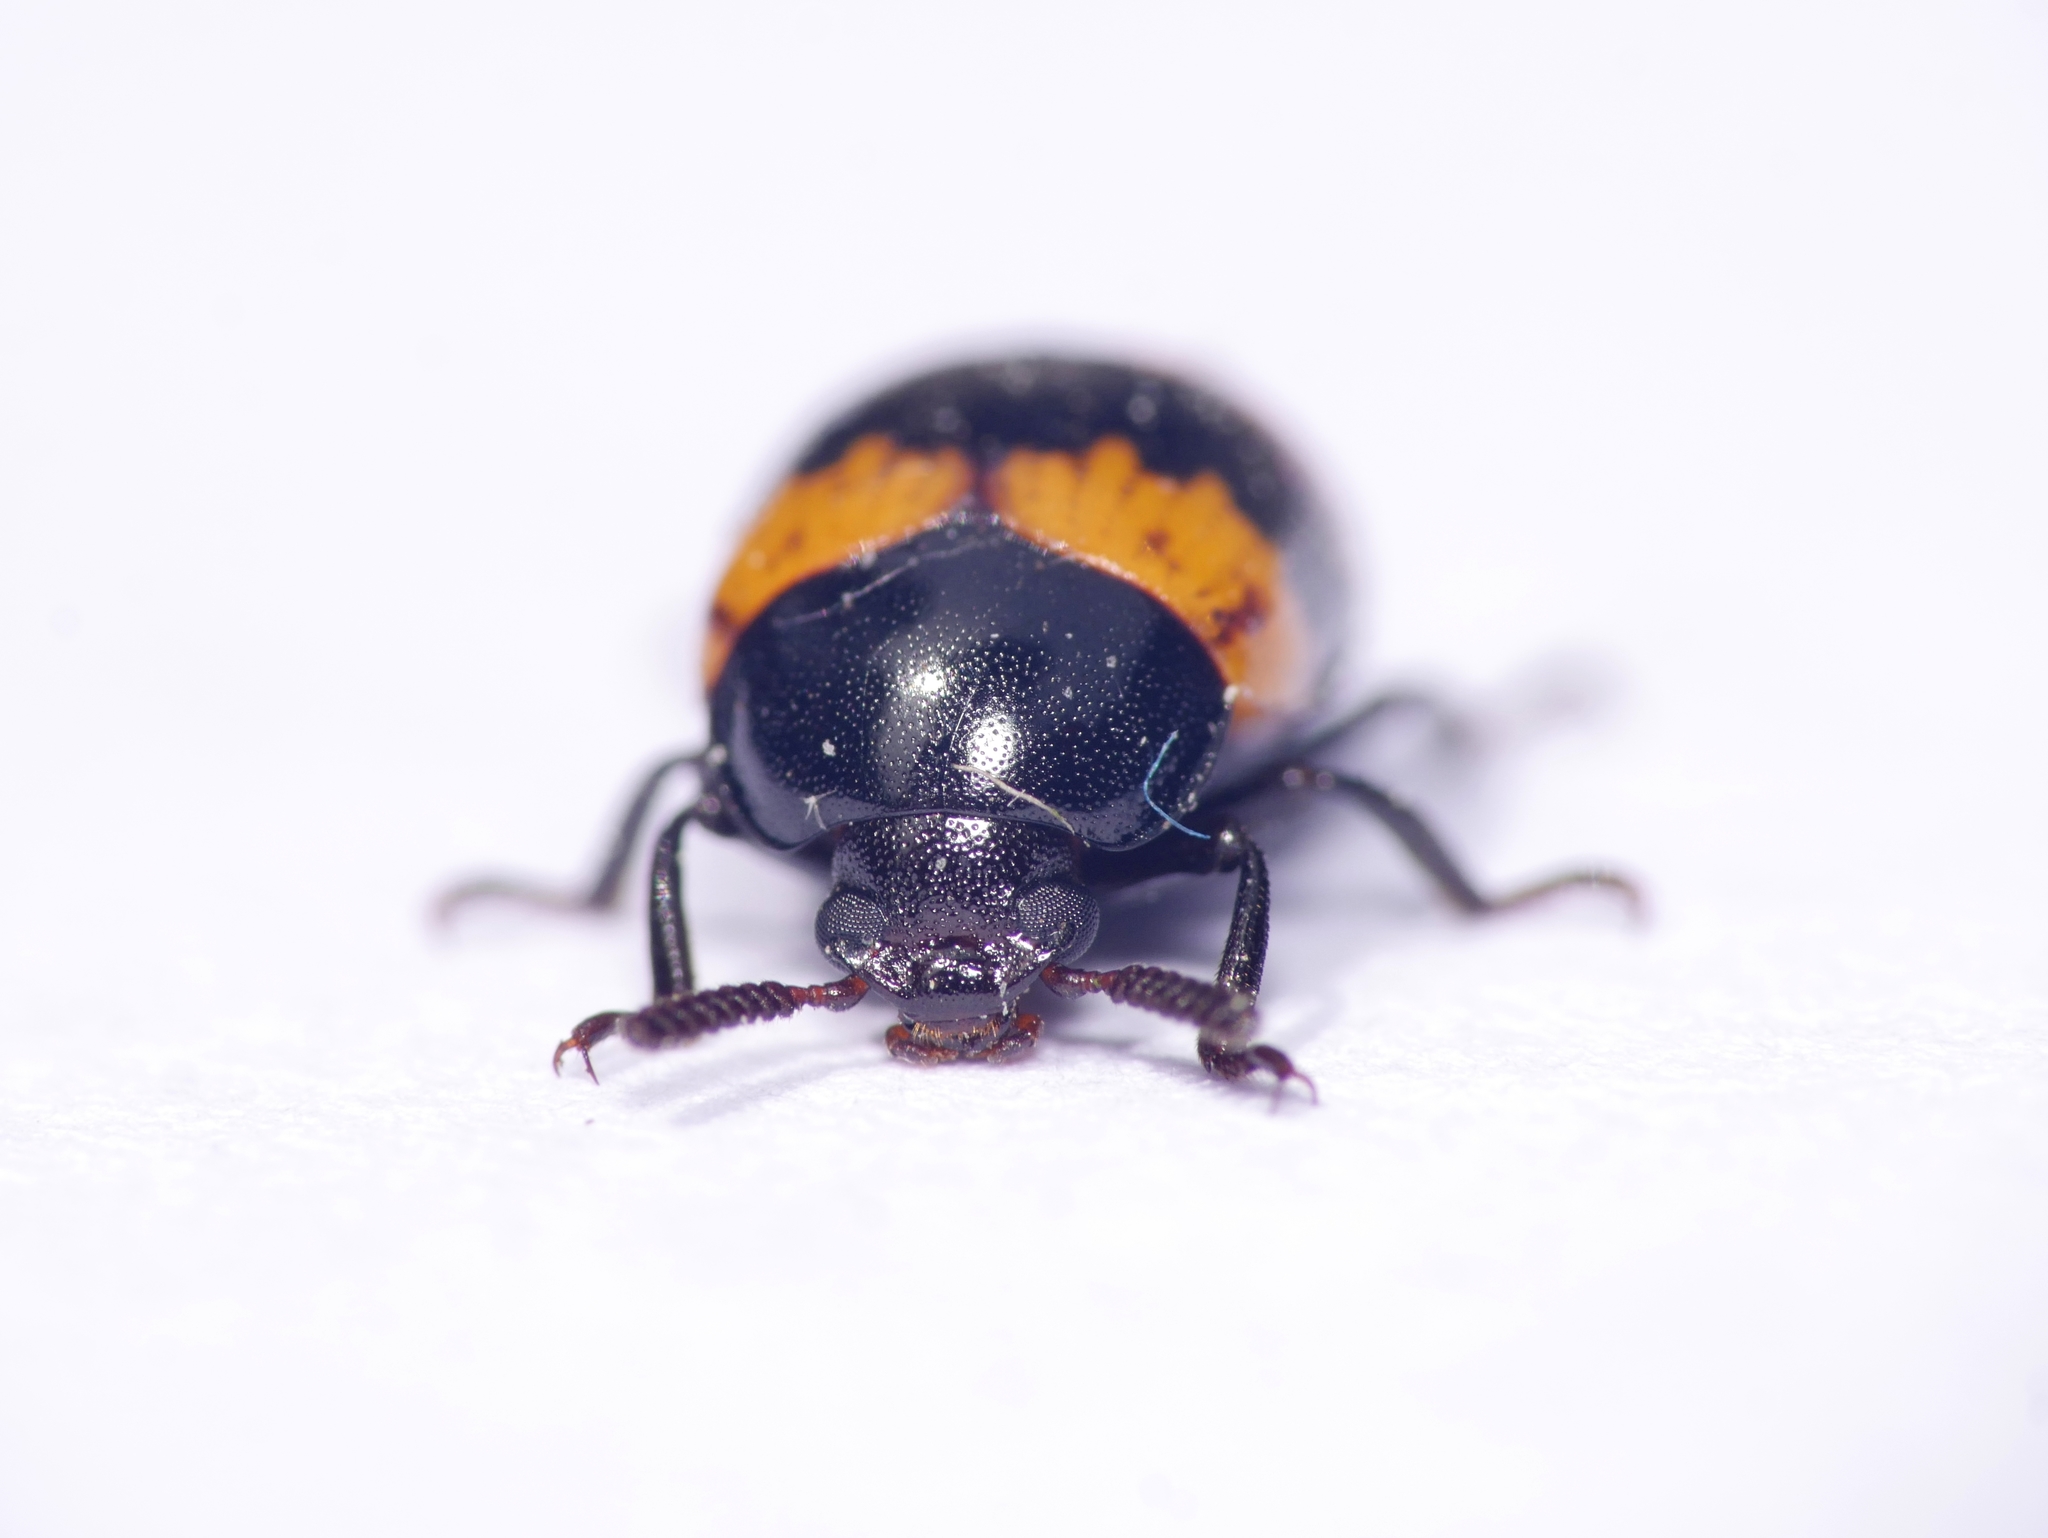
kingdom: Animalia
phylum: Arthropoda
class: Insecta
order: Coleoptera
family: Tenebrionidae
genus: Diaperis
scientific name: Diaperis boleti
